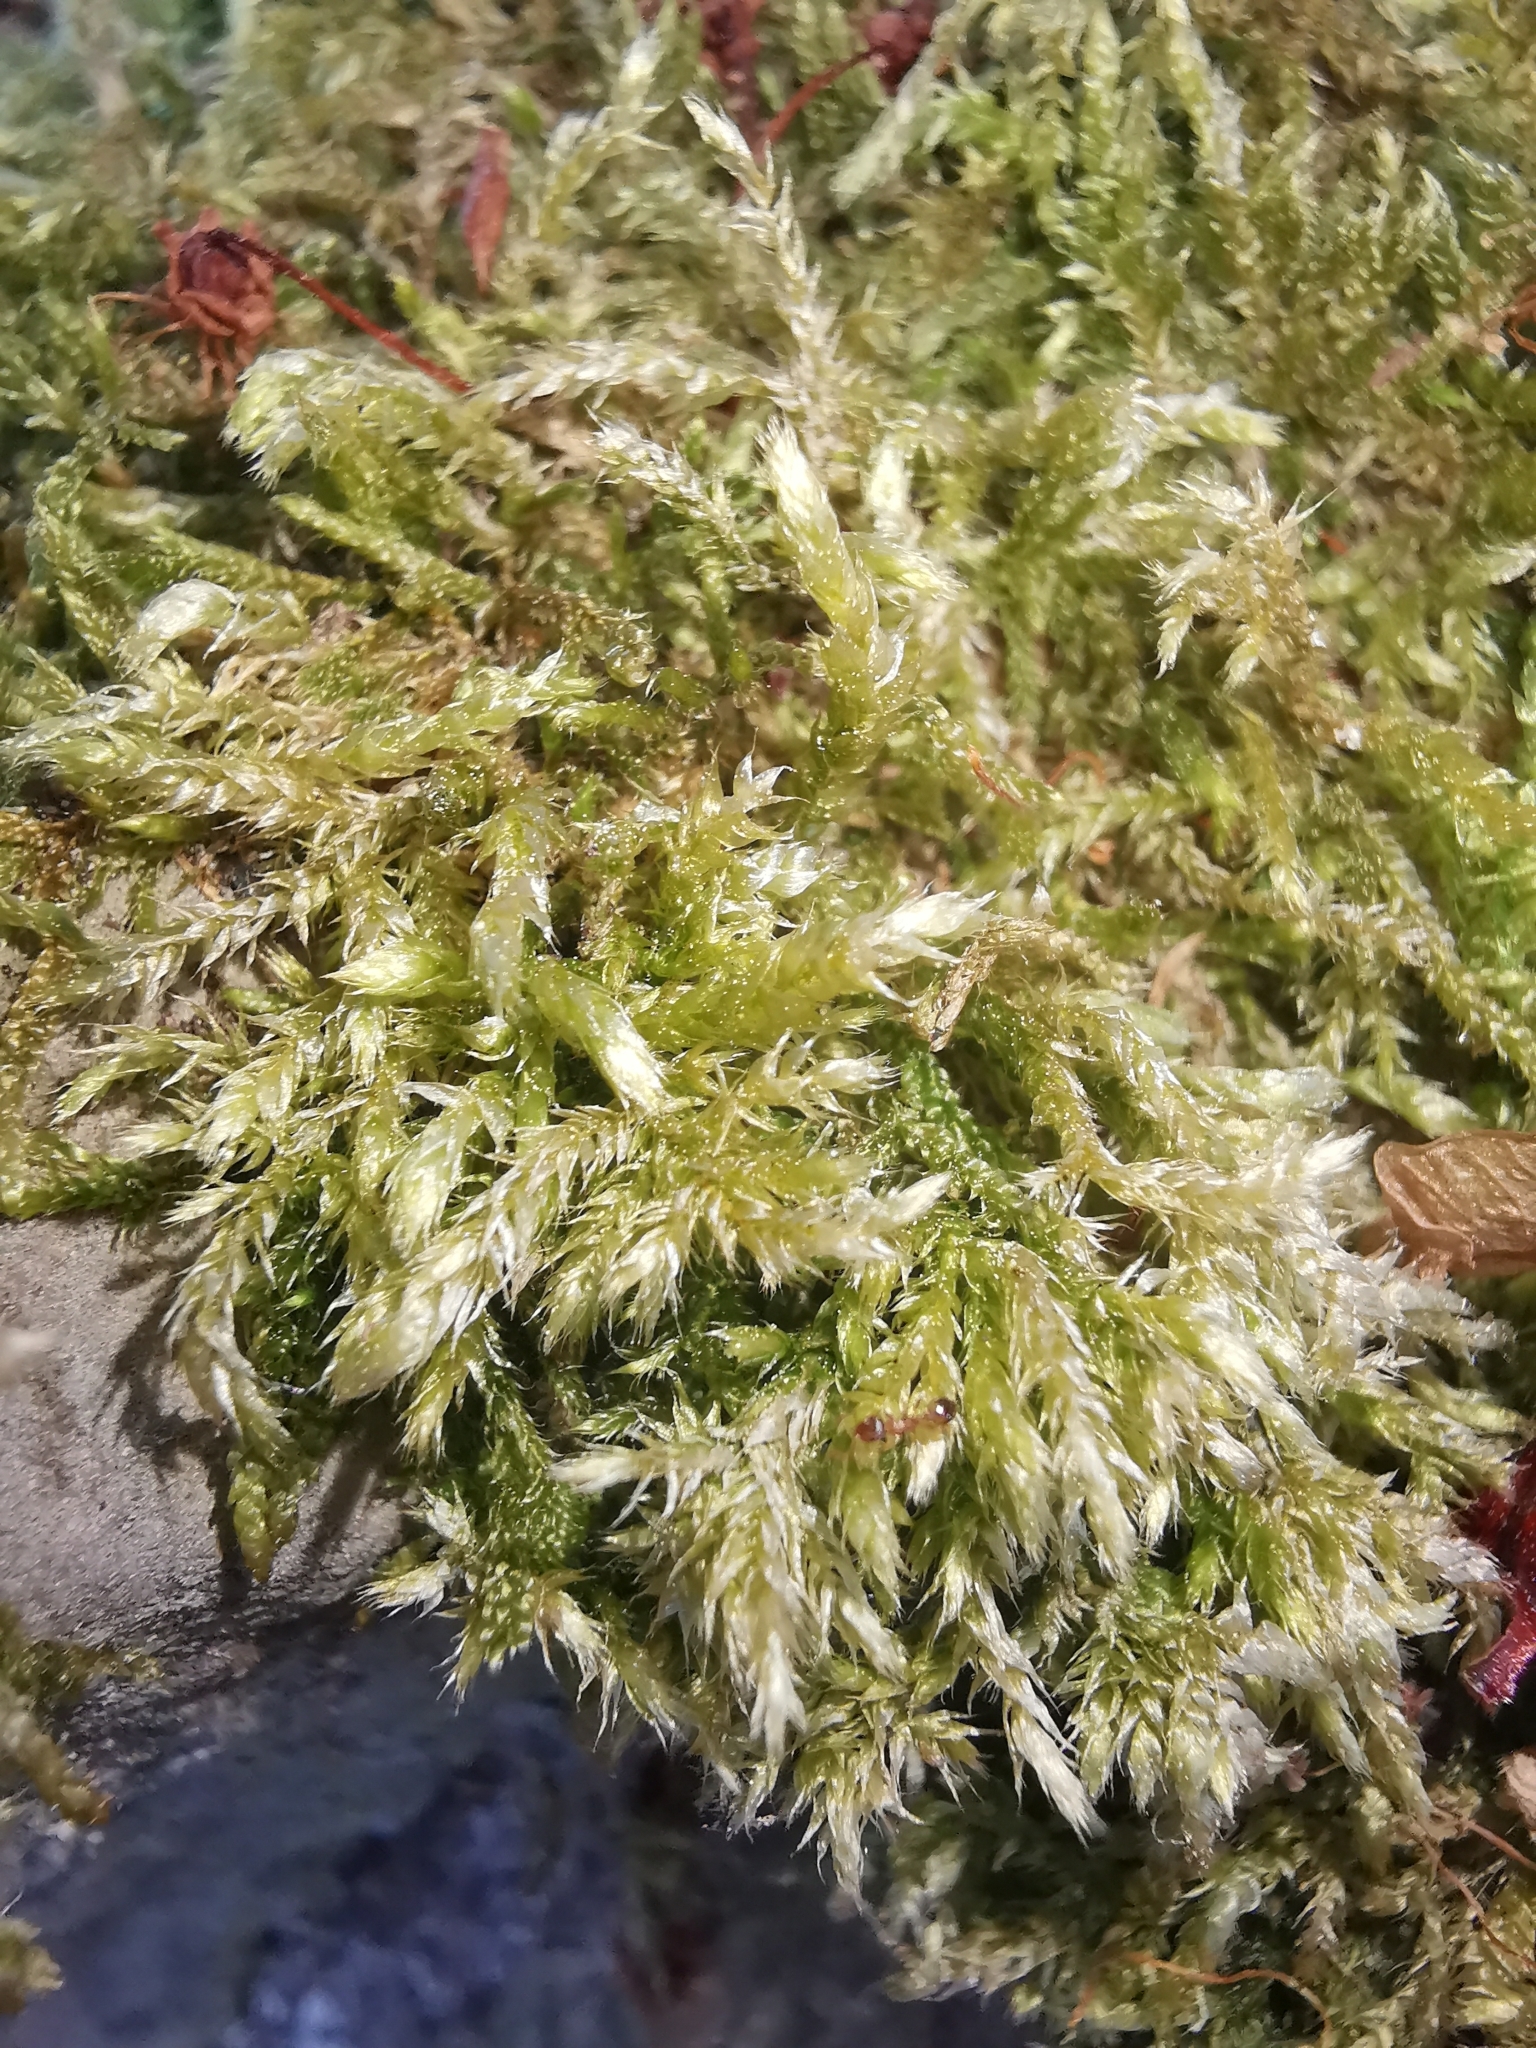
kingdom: Plantae
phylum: Bryophyta
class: Bryopsida
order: Hypnales
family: Brachytheciaceae
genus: Brachythecium
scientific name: Brachythecium rutabulum
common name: Rough-stalked feather-moss
